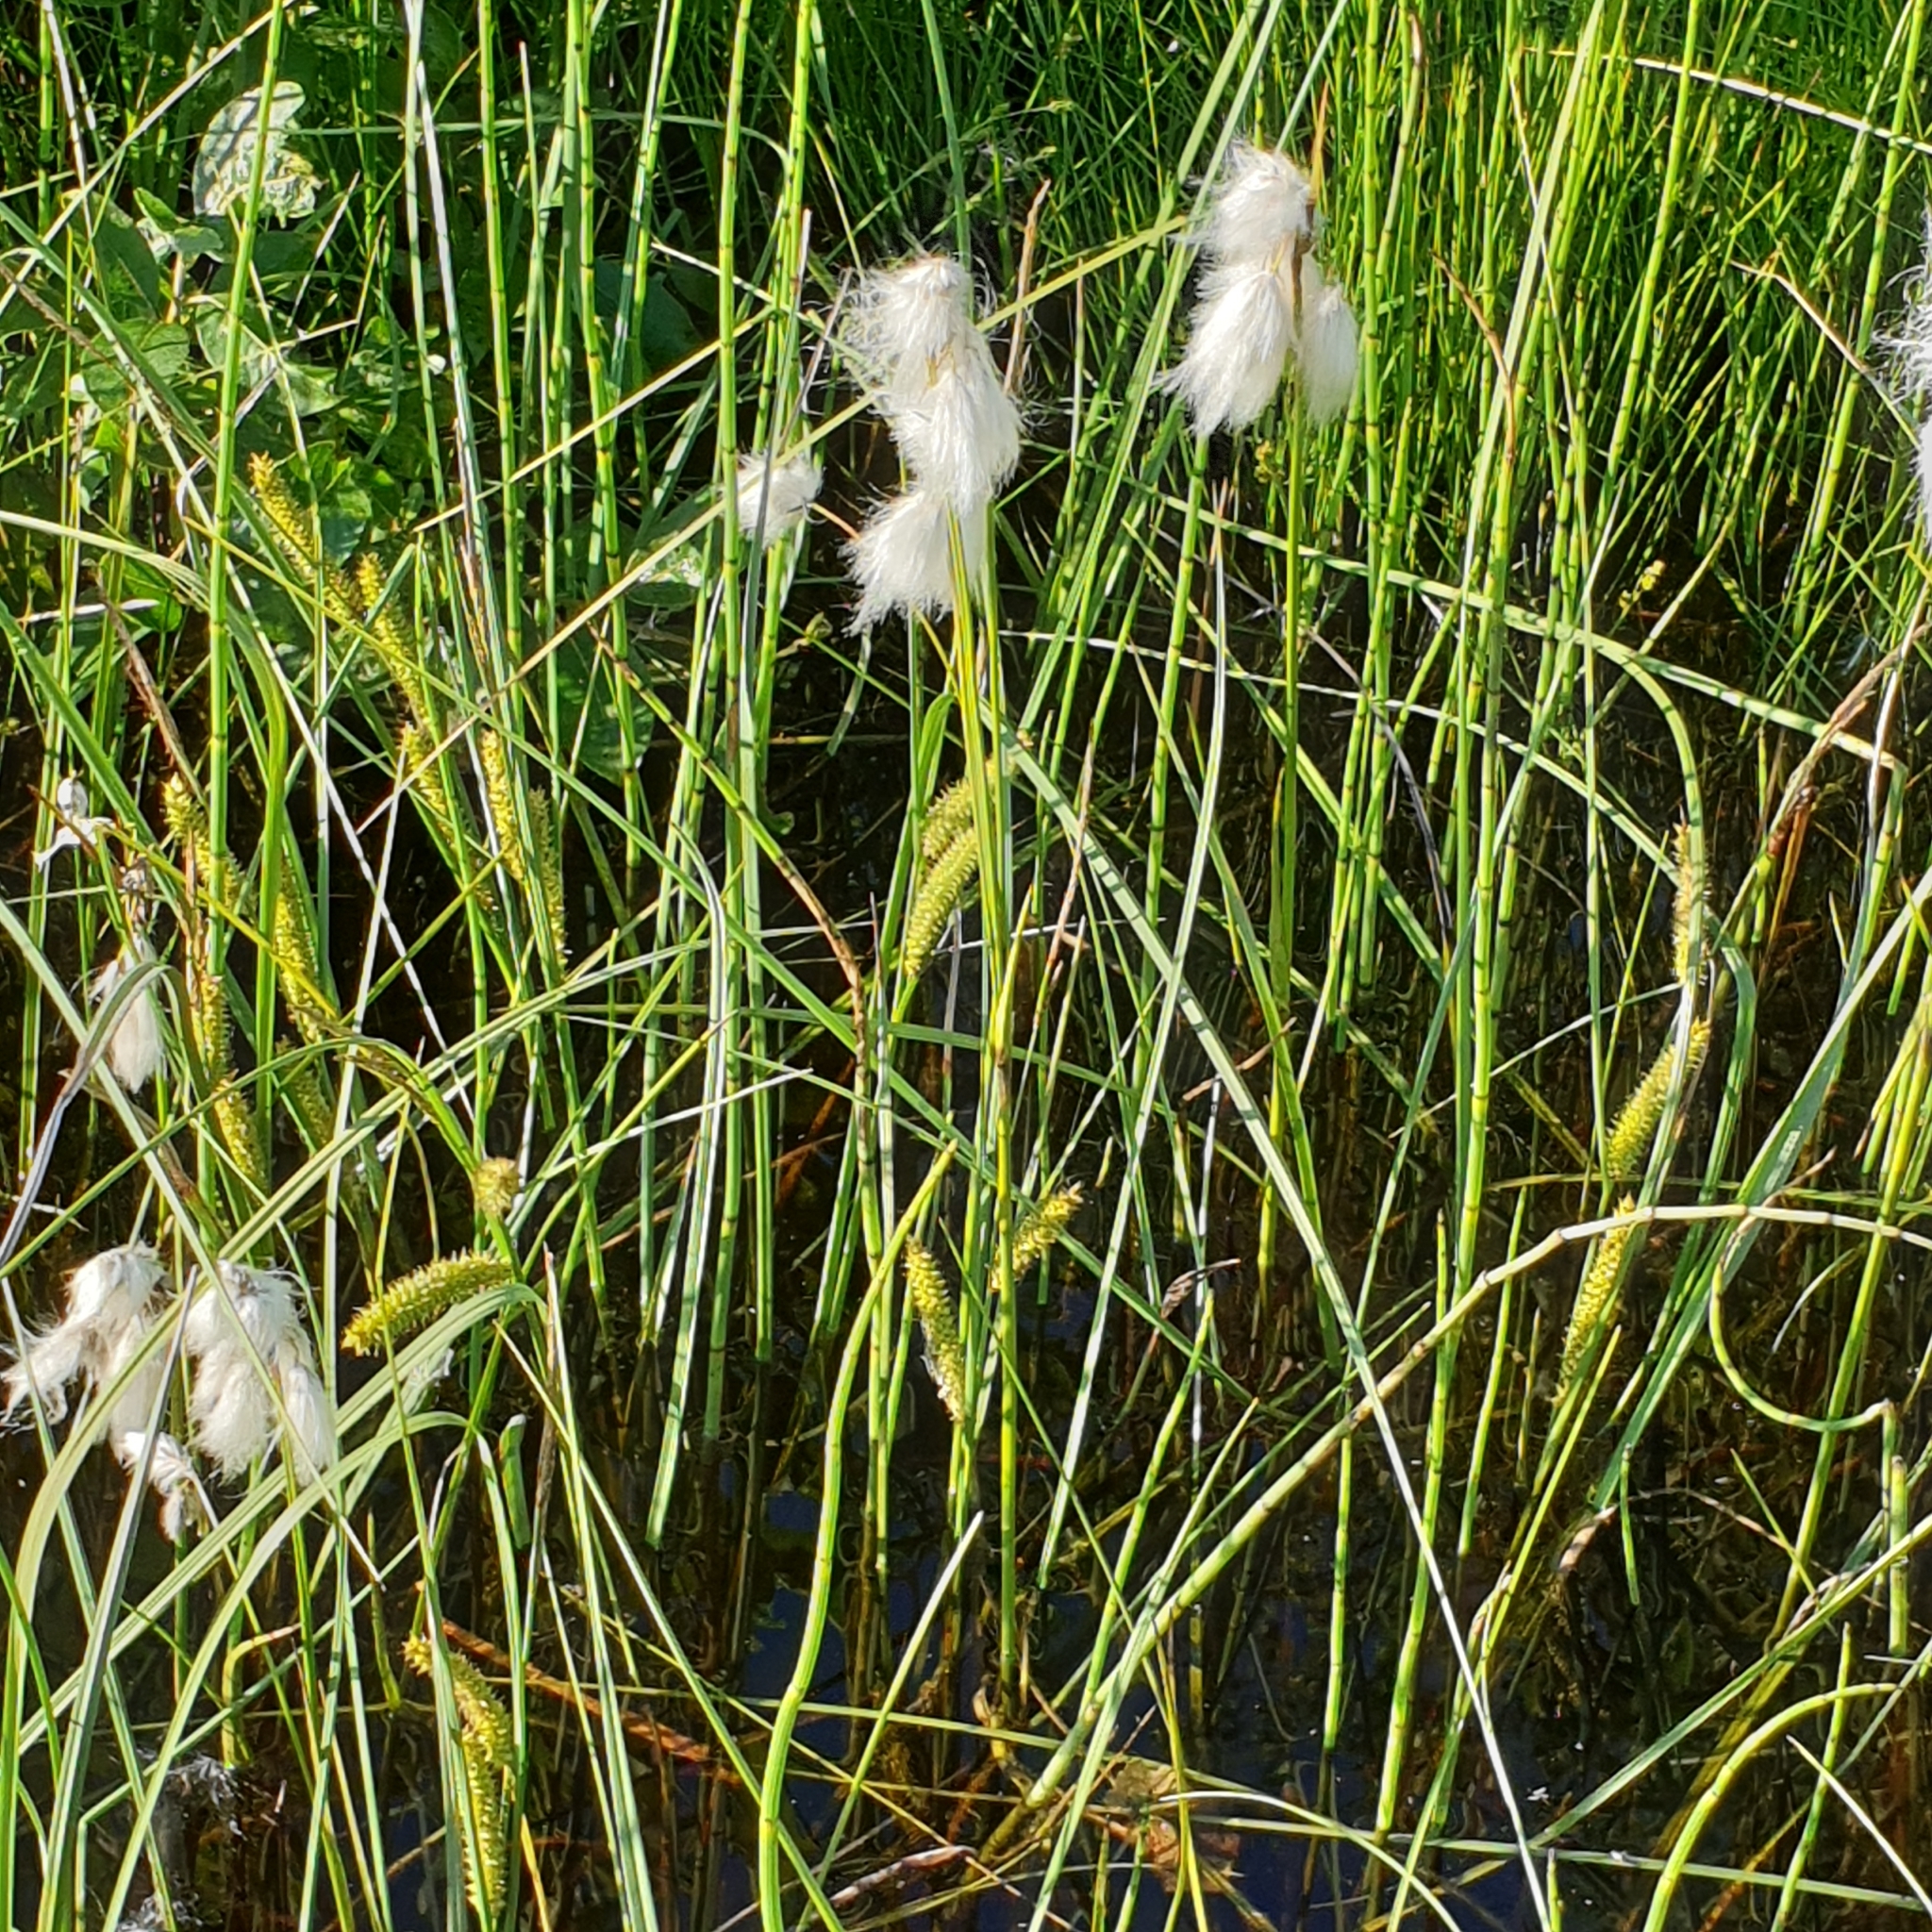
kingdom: Plantae
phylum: Tracheophyta
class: Liliopsida
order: Poales
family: Cyperaceae
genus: Eriophorum
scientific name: Eriophorum latifolium
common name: Broad-leaved cottongrass
